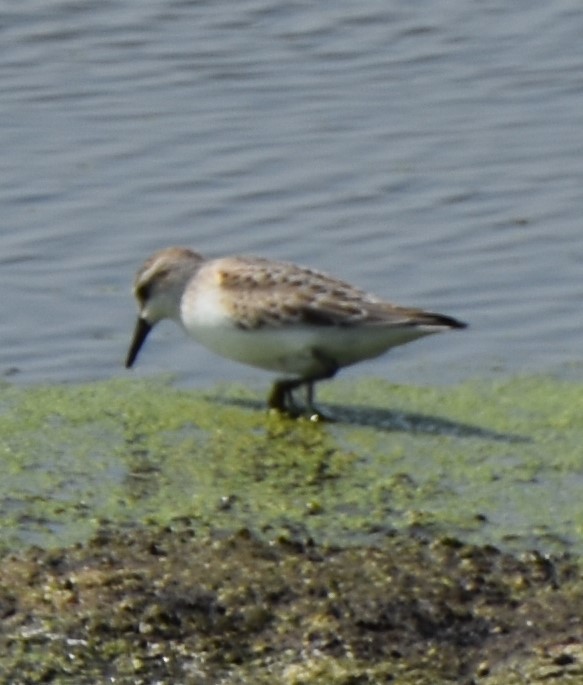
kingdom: Animalia
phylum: Chordata
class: Aves
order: Charadriiformes
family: Scolopacidae
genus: Calidris
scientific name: Calidris pusilla
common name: Semipalmated sandpiper
